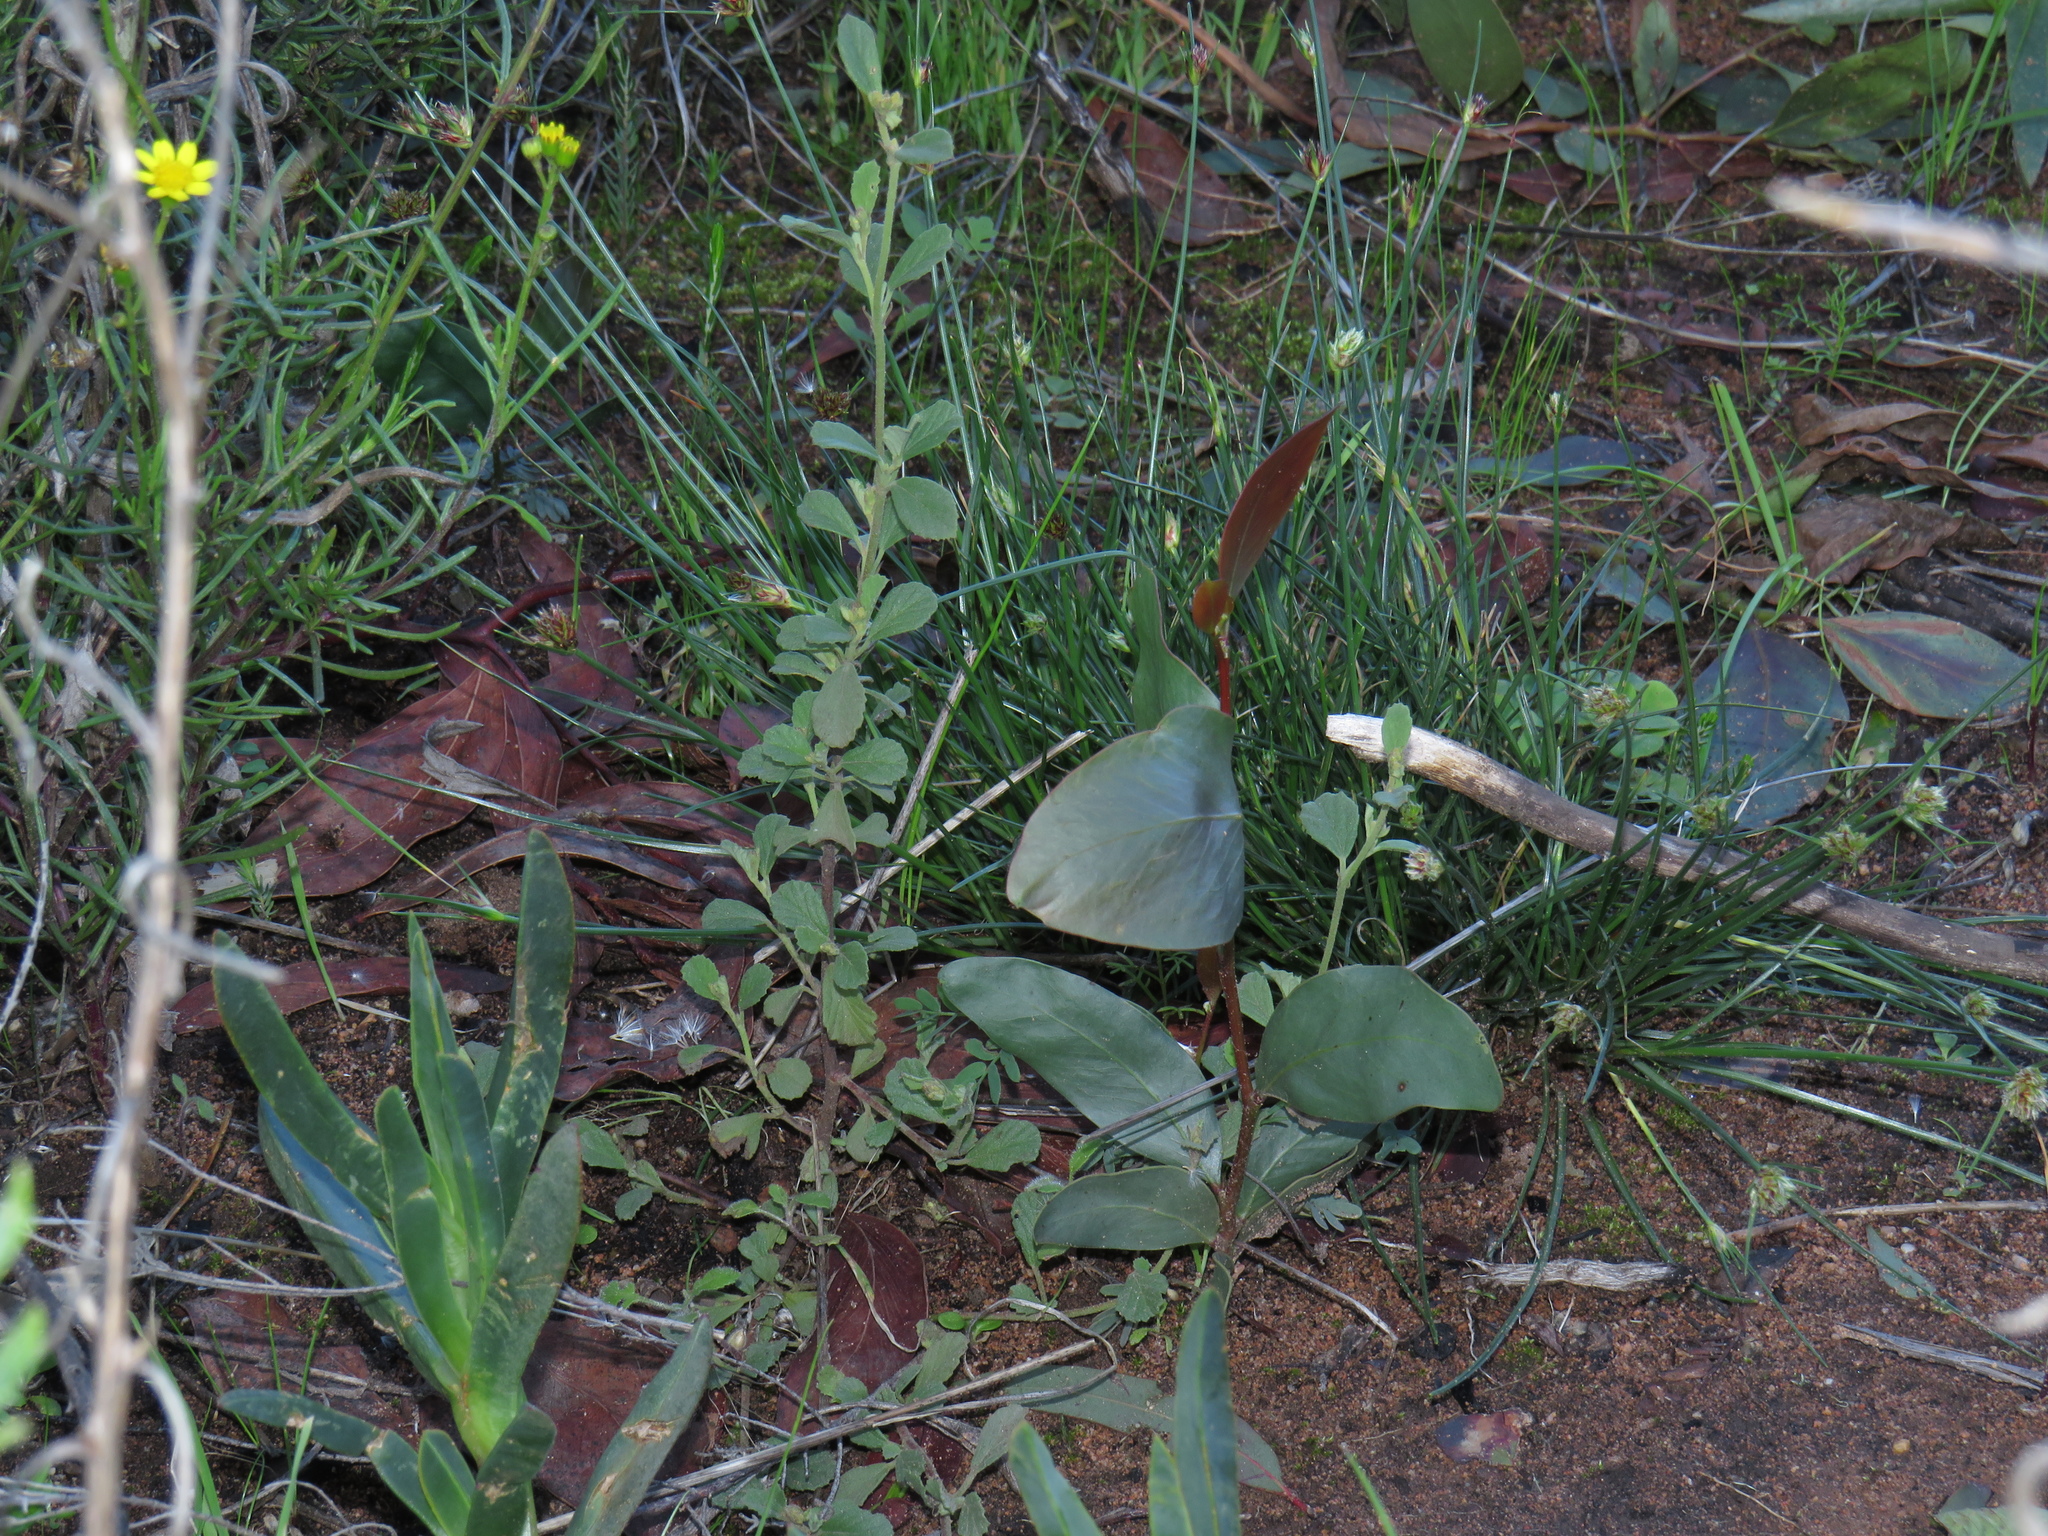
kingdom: Plantae
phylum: Tracheophyta
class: Magnoliopsida
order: Fabales
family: Fabaceae
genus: Acacia
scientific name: Acacia pycnantha
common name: Golden wattle
